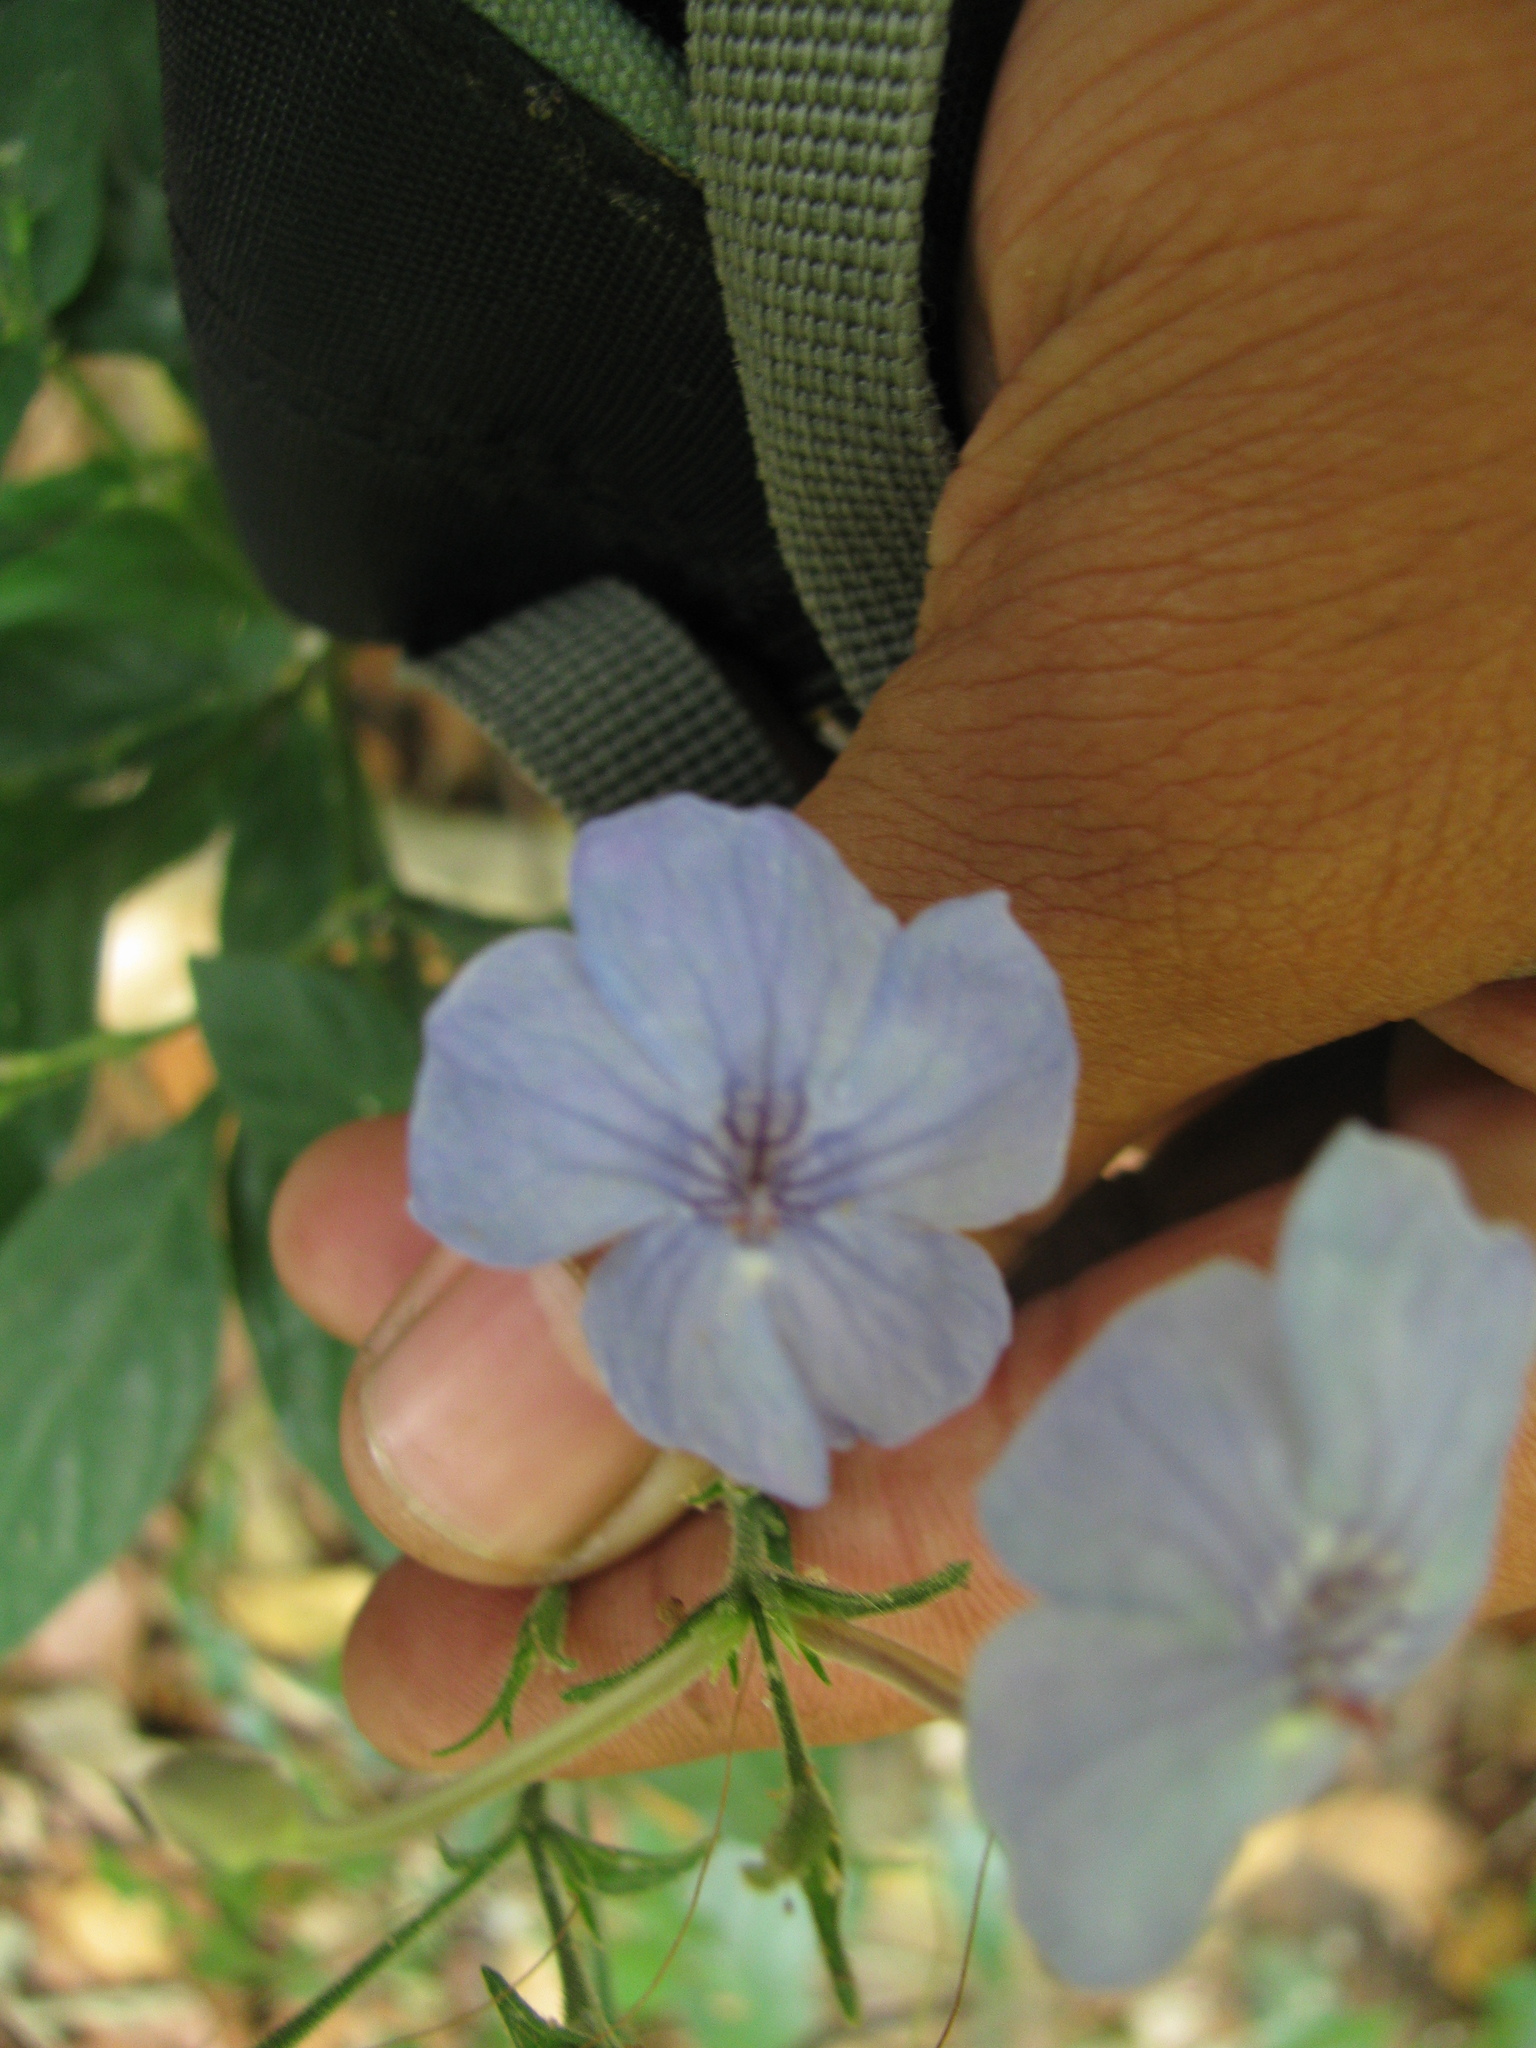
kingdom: Plantae
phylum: Tracheophyta
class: Magnoliopsida
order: Lamiales
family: Acanthaceae
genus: Eranthemum
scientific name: Eranthemum capense
